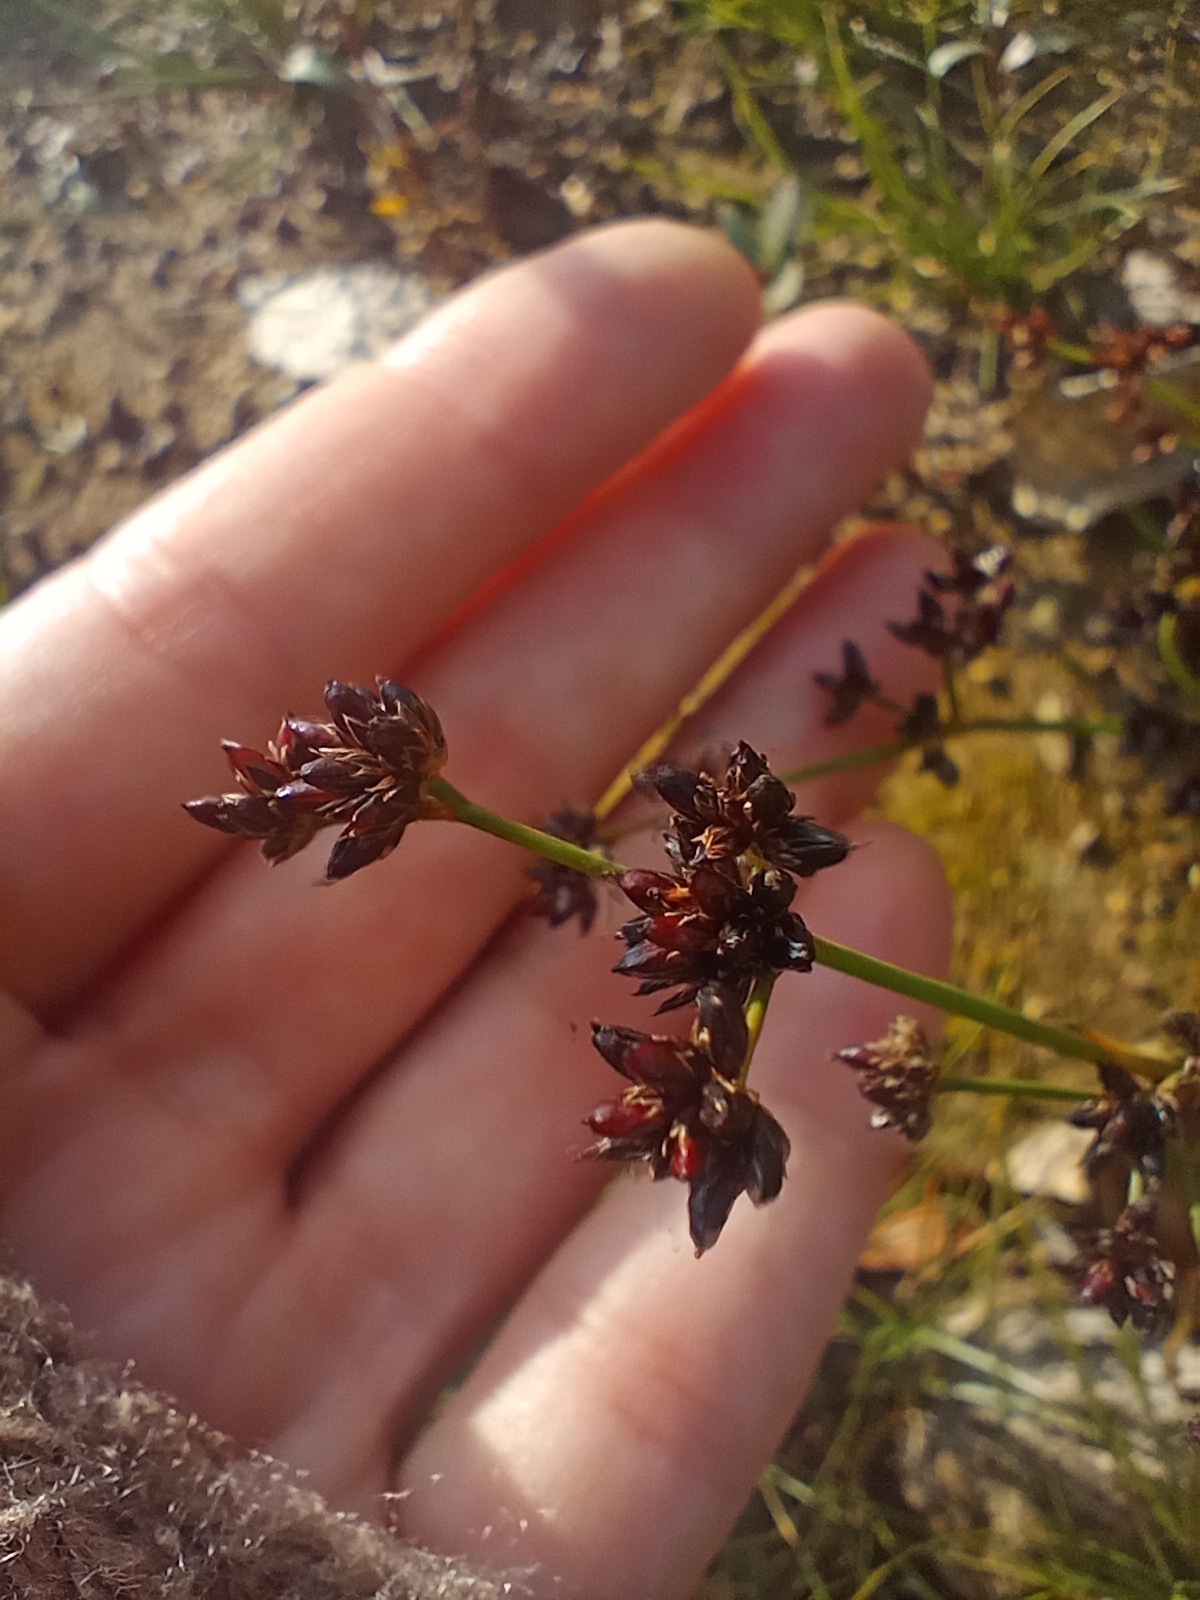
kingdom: Plantae
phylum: Tracheophyta
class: Liliopsida
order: Poales
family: Juncaceae
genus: Juncus
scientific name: Juncus alpinoarticulatus
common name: Alpine rush
